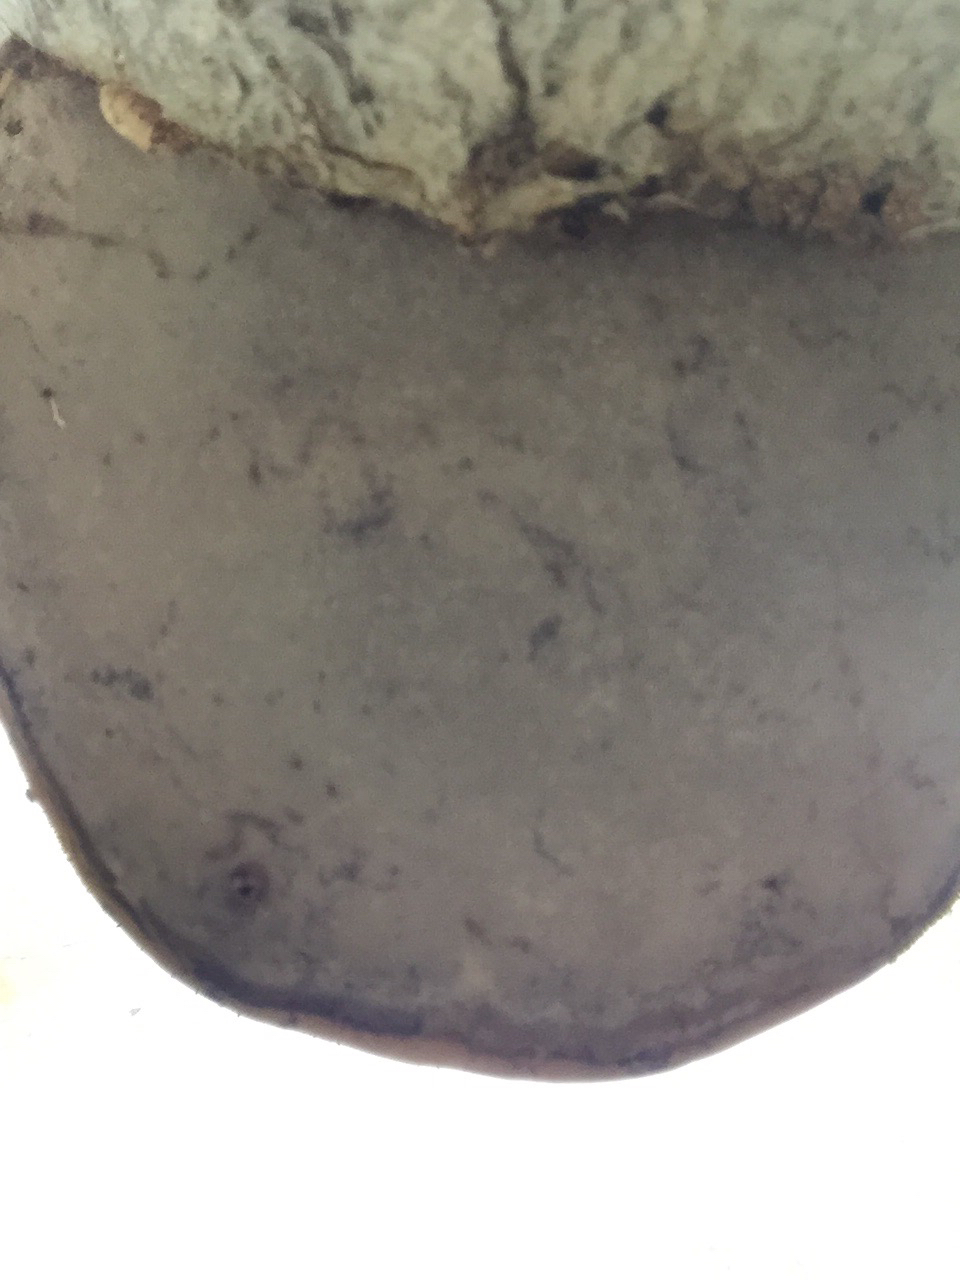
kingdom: Fungi
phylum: Basidiomycota
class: Agaricomycetes
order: Polyporales
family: Polyporaceae
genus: Fomes
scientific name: Fomes fomentarius
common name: Hoof fungus
